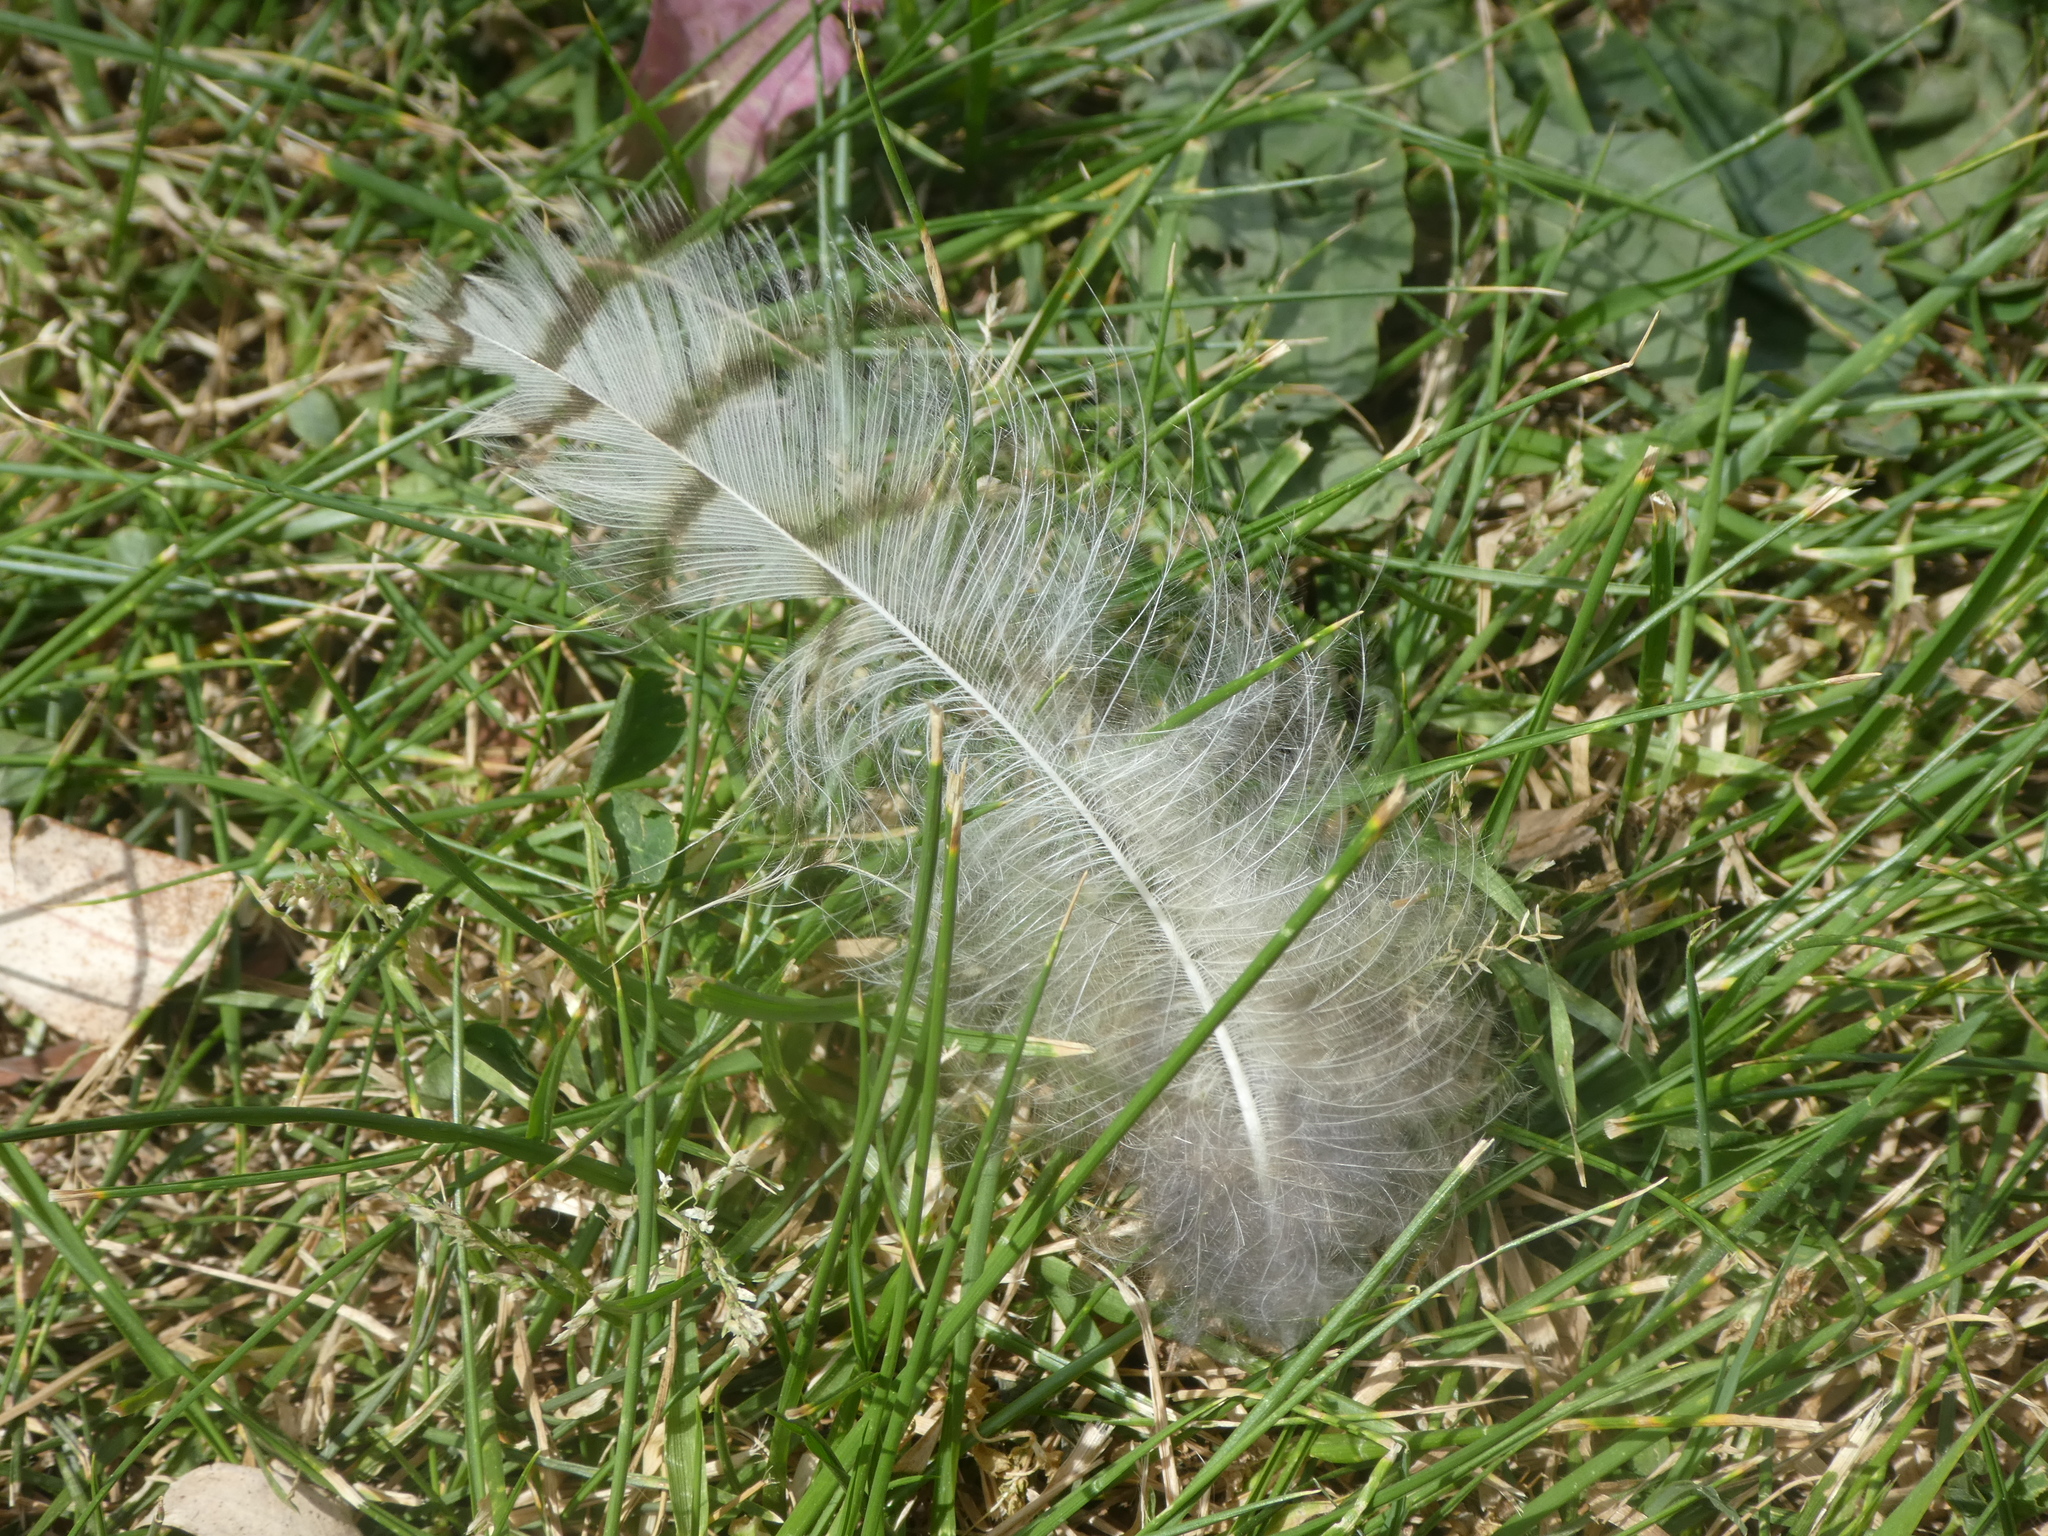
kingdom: Animalia
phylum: Chordata
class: Aves
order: Strigiformes
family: Strigidae
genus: Bubo
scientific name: Bubo virginianus
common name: Great horned owl
